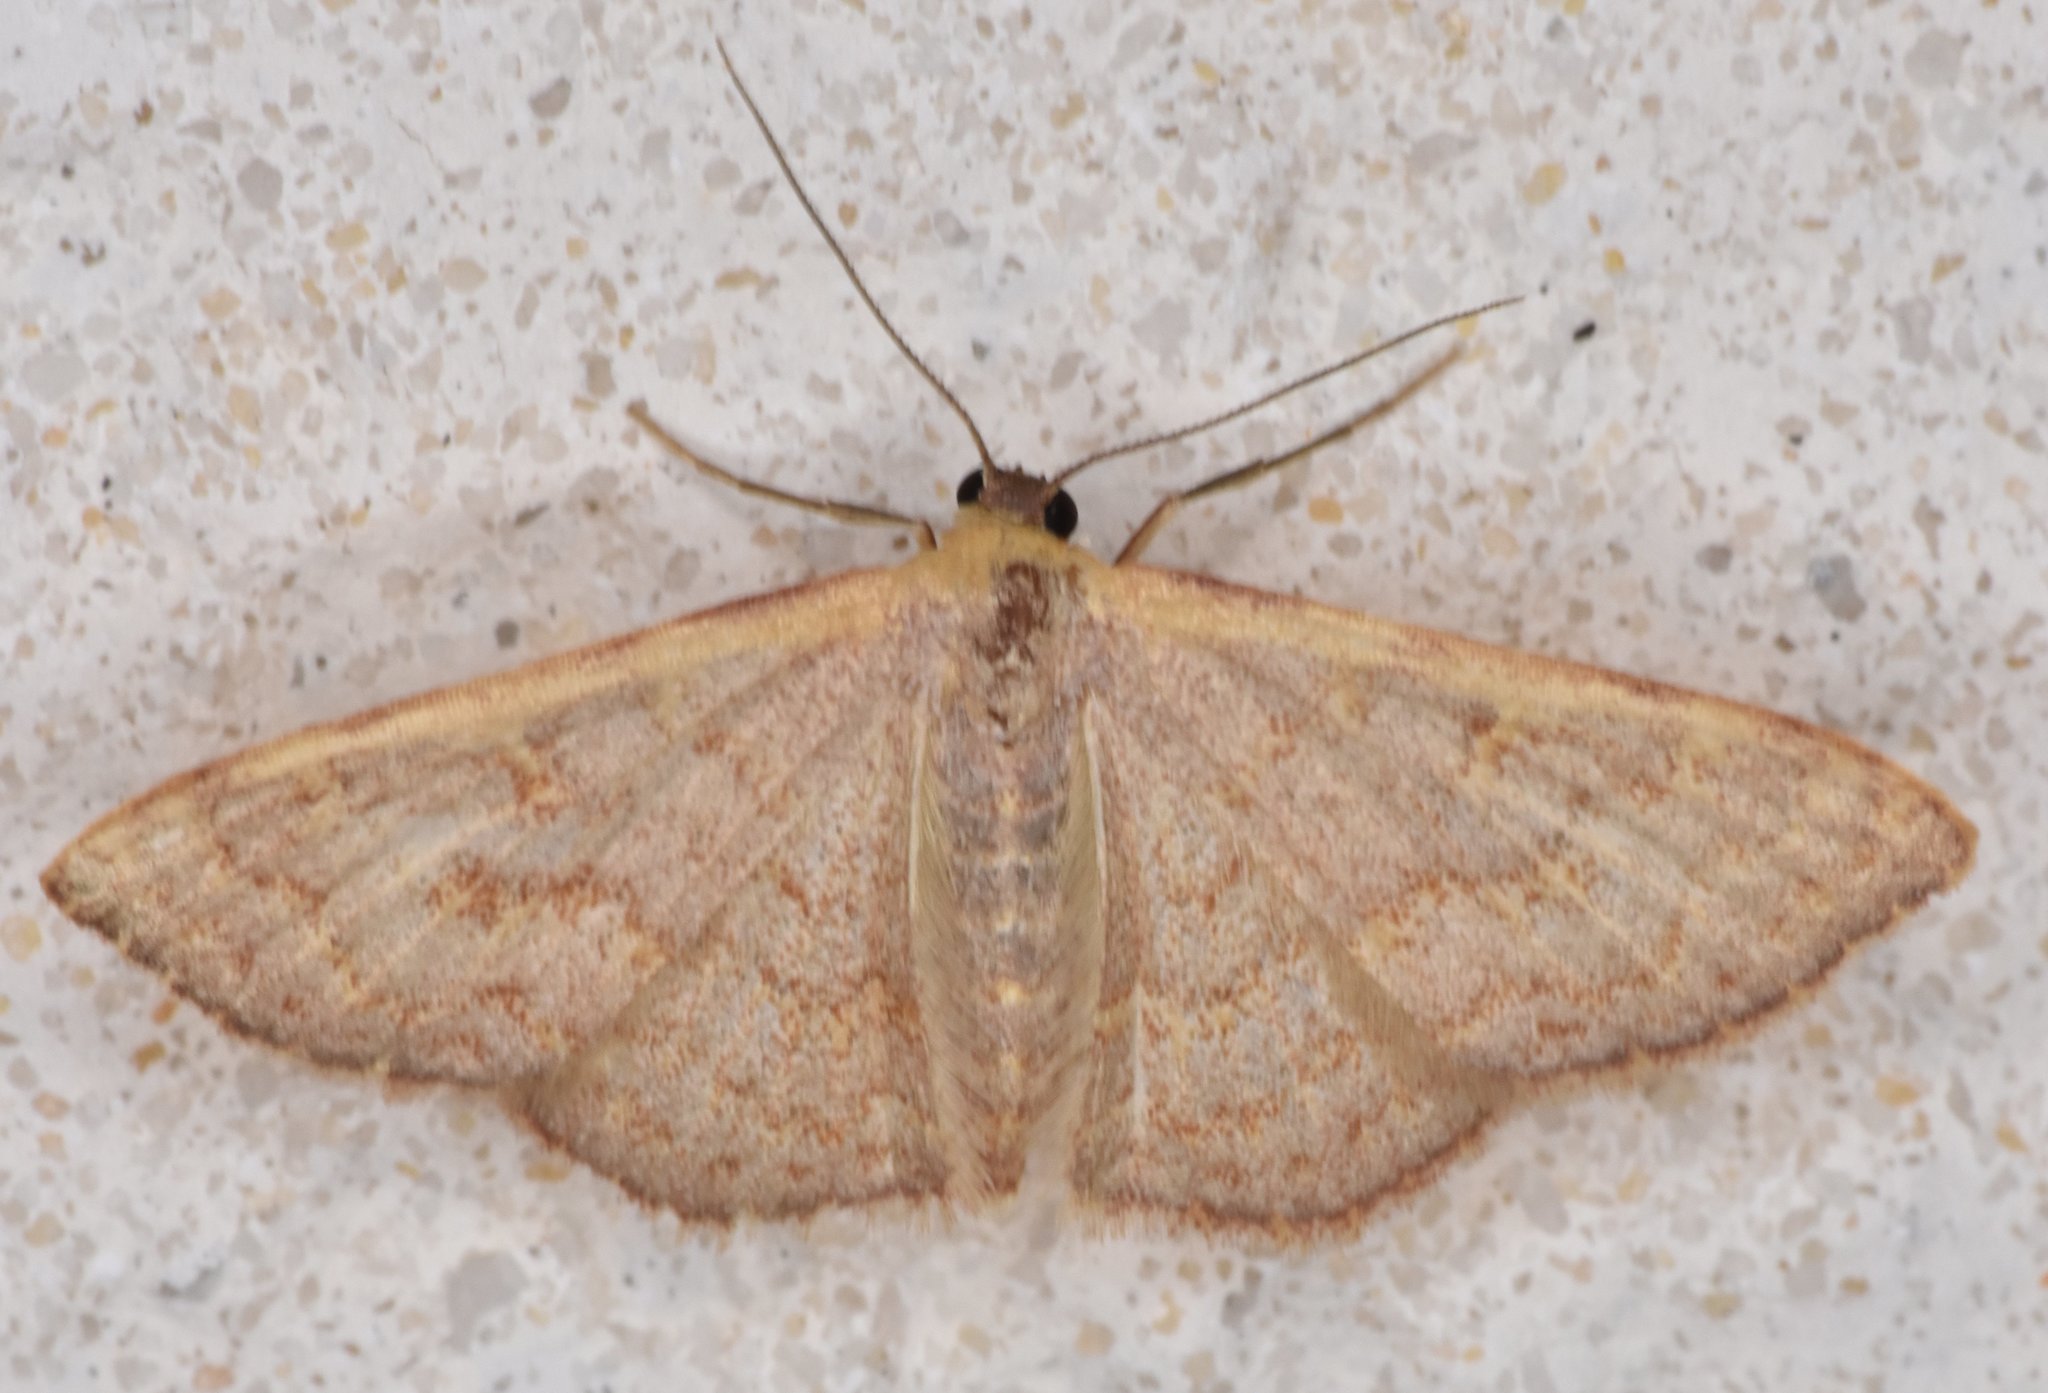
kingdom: Animalia
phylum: Arthropoda
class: Insecta
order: Lepidoptera
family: Geometridae
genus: Leptostales
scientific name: Leptostales pannaria
